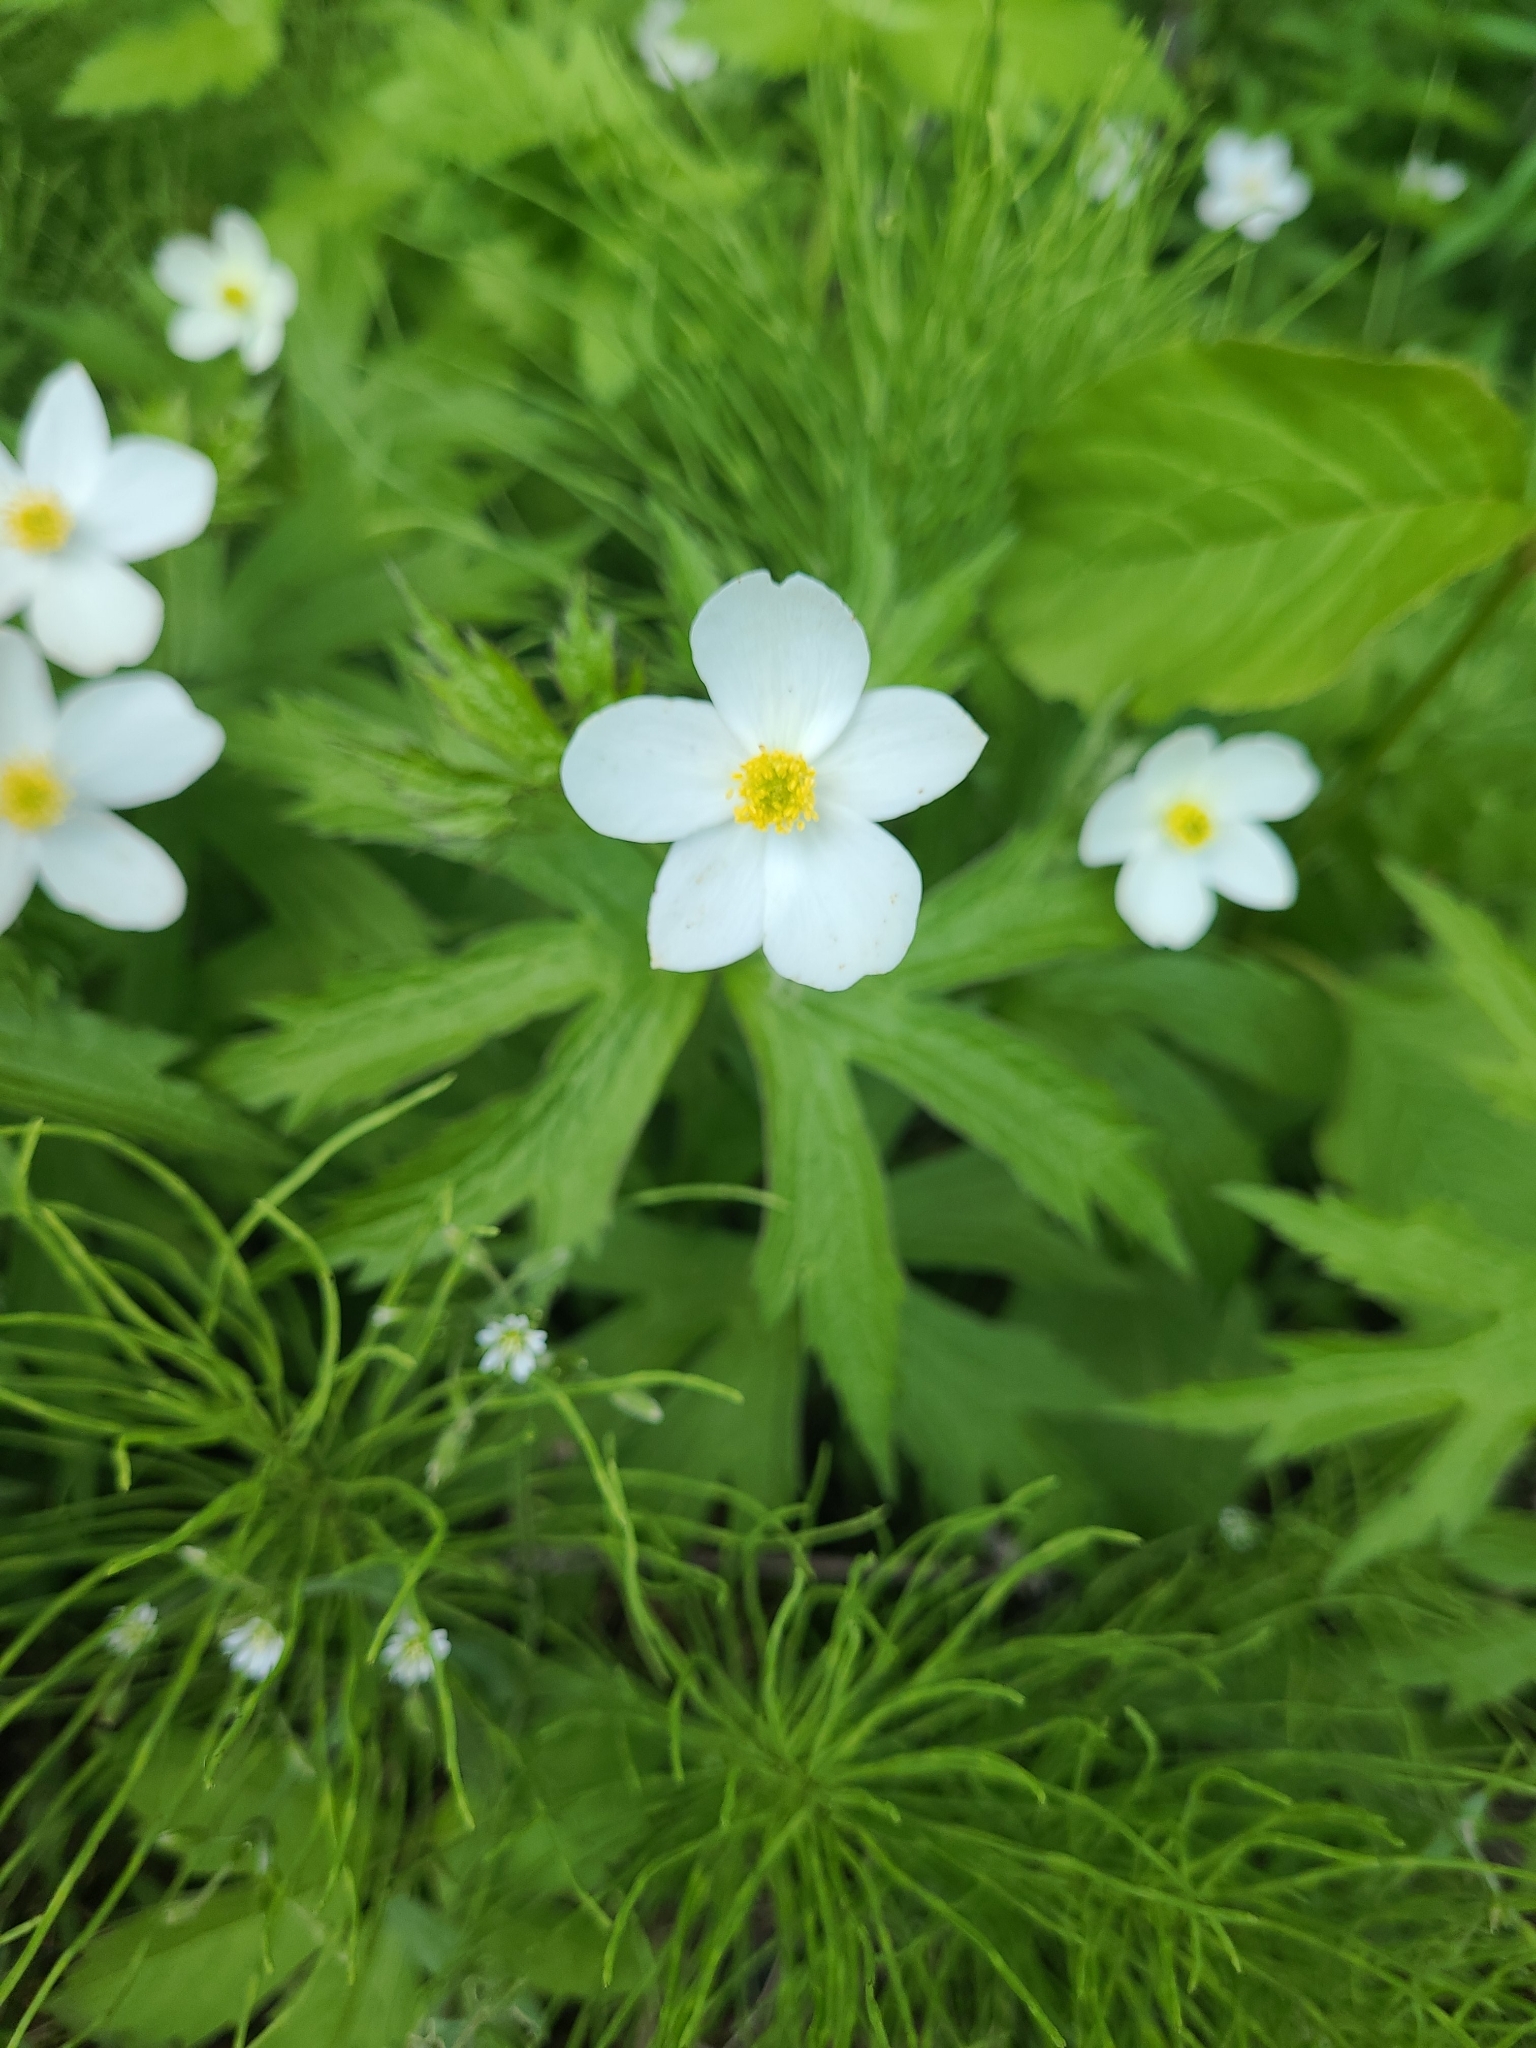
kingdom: Plantae
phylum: Tracheophyta
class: Magnoliopsida
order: Ranunculales
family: Ranunculaceae
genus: Anemonastrum
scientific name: Anemonastrum canadense
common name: Canada anemone
